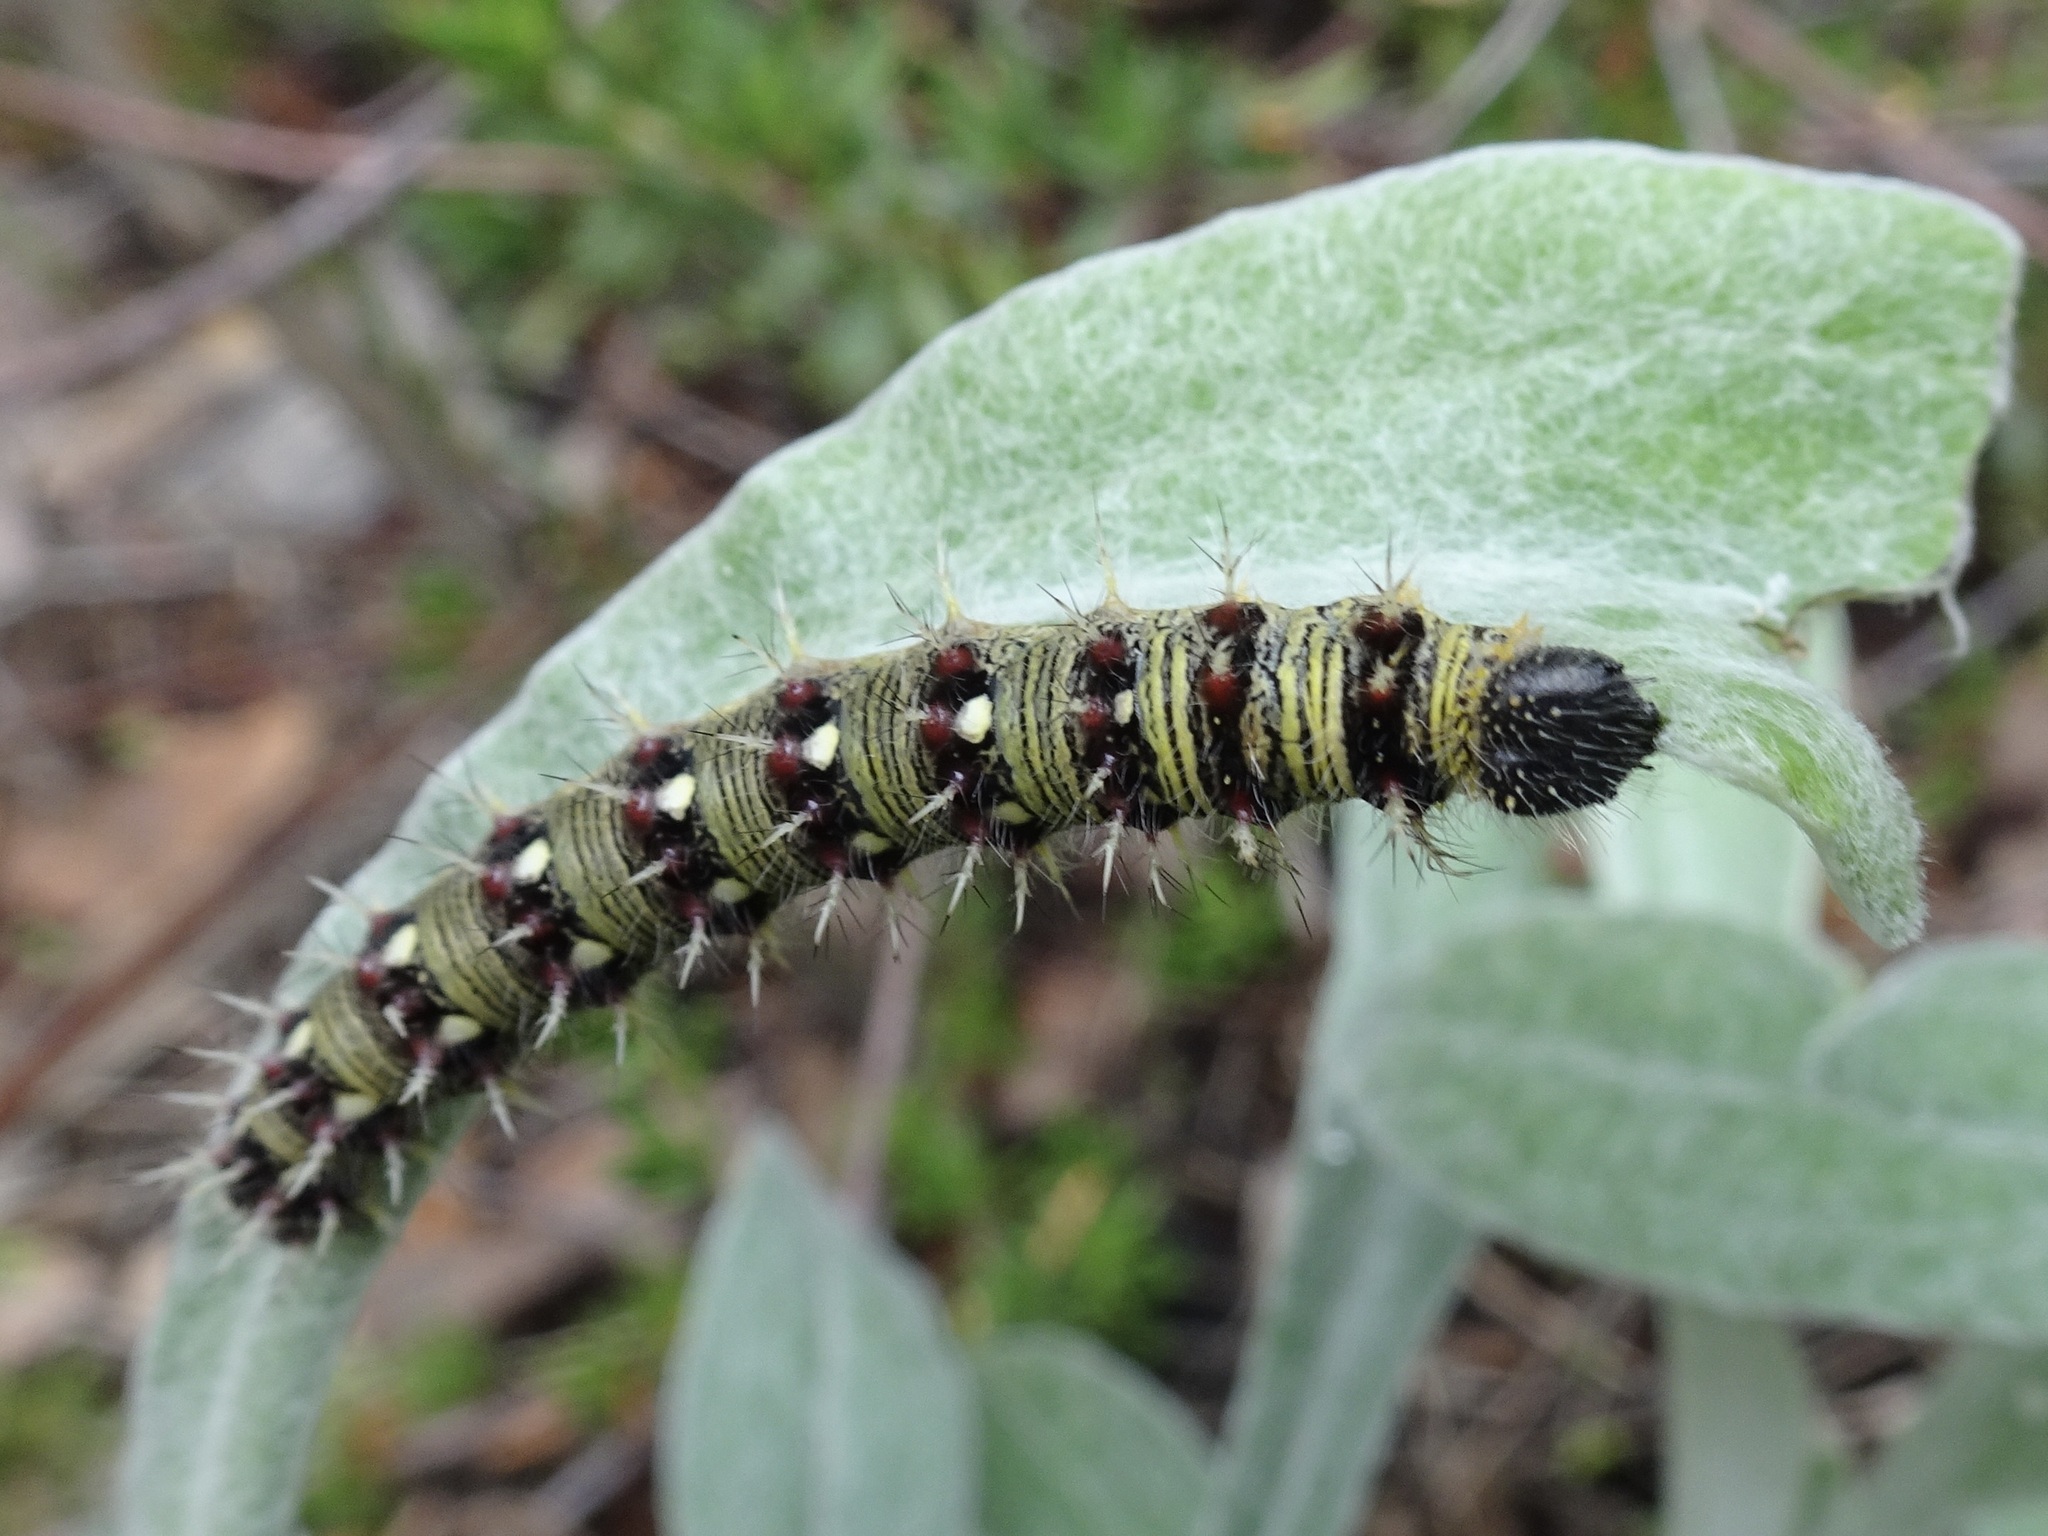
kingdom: Animalia
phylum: Arthropoda
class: Insecta
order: Lepidoptera
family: Nymphalidae
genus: Vanessa
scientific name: Vanessa virginiensis
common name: American lady
